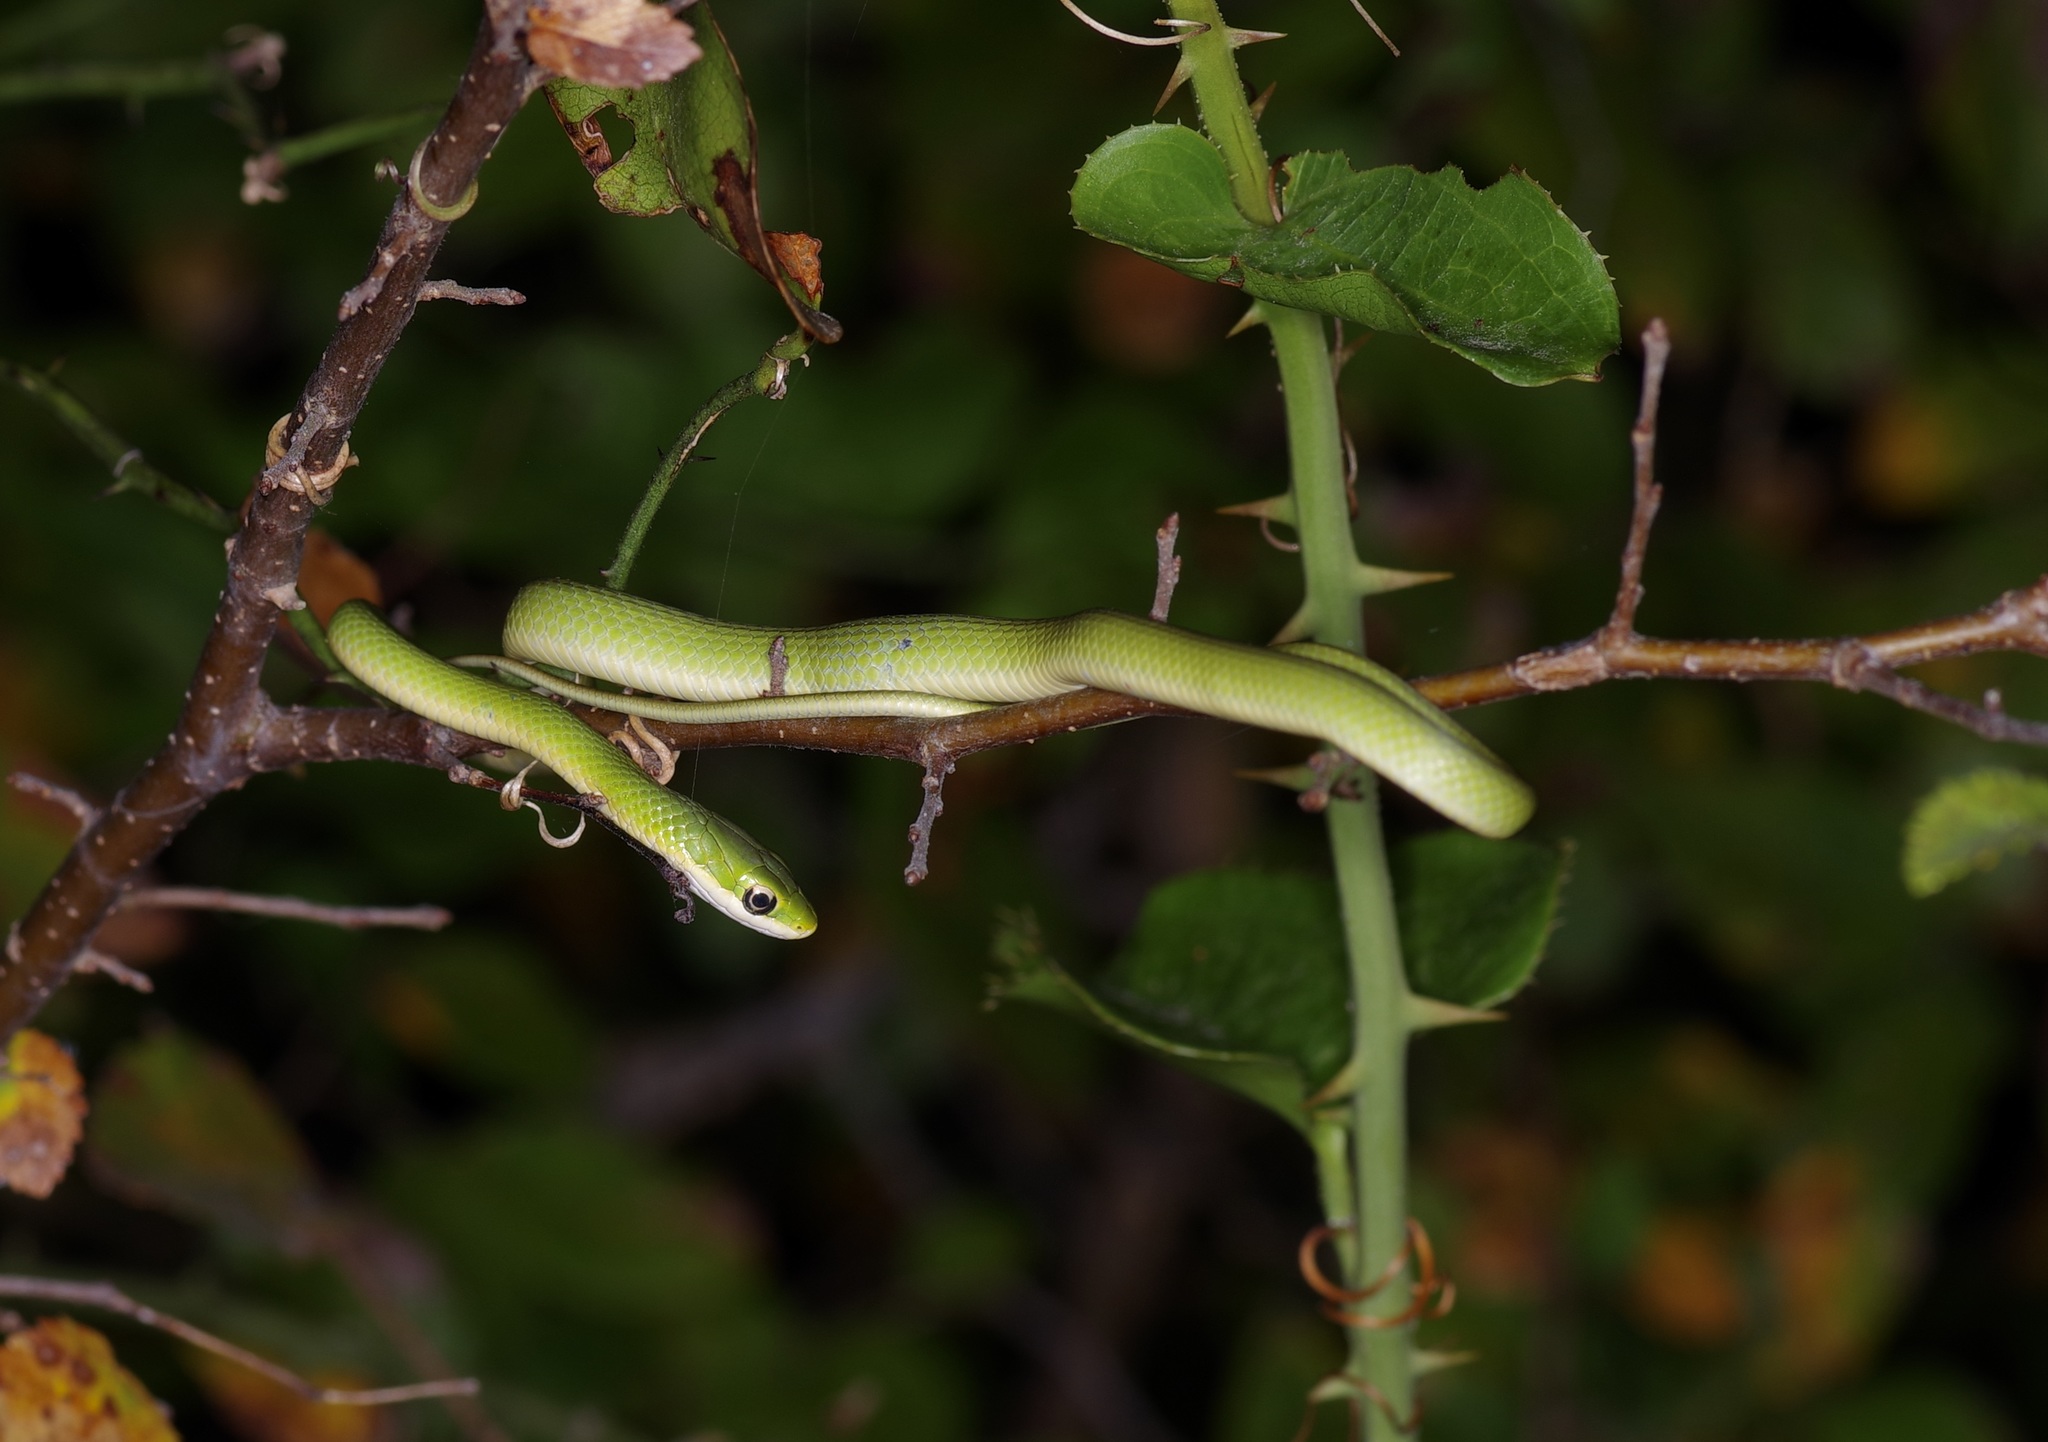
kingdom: Animalia
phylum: Chordata
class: Squamata
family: Colubridae
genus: Opheodrys
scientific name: Opheodrys aestivus
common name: Rough greensnake
